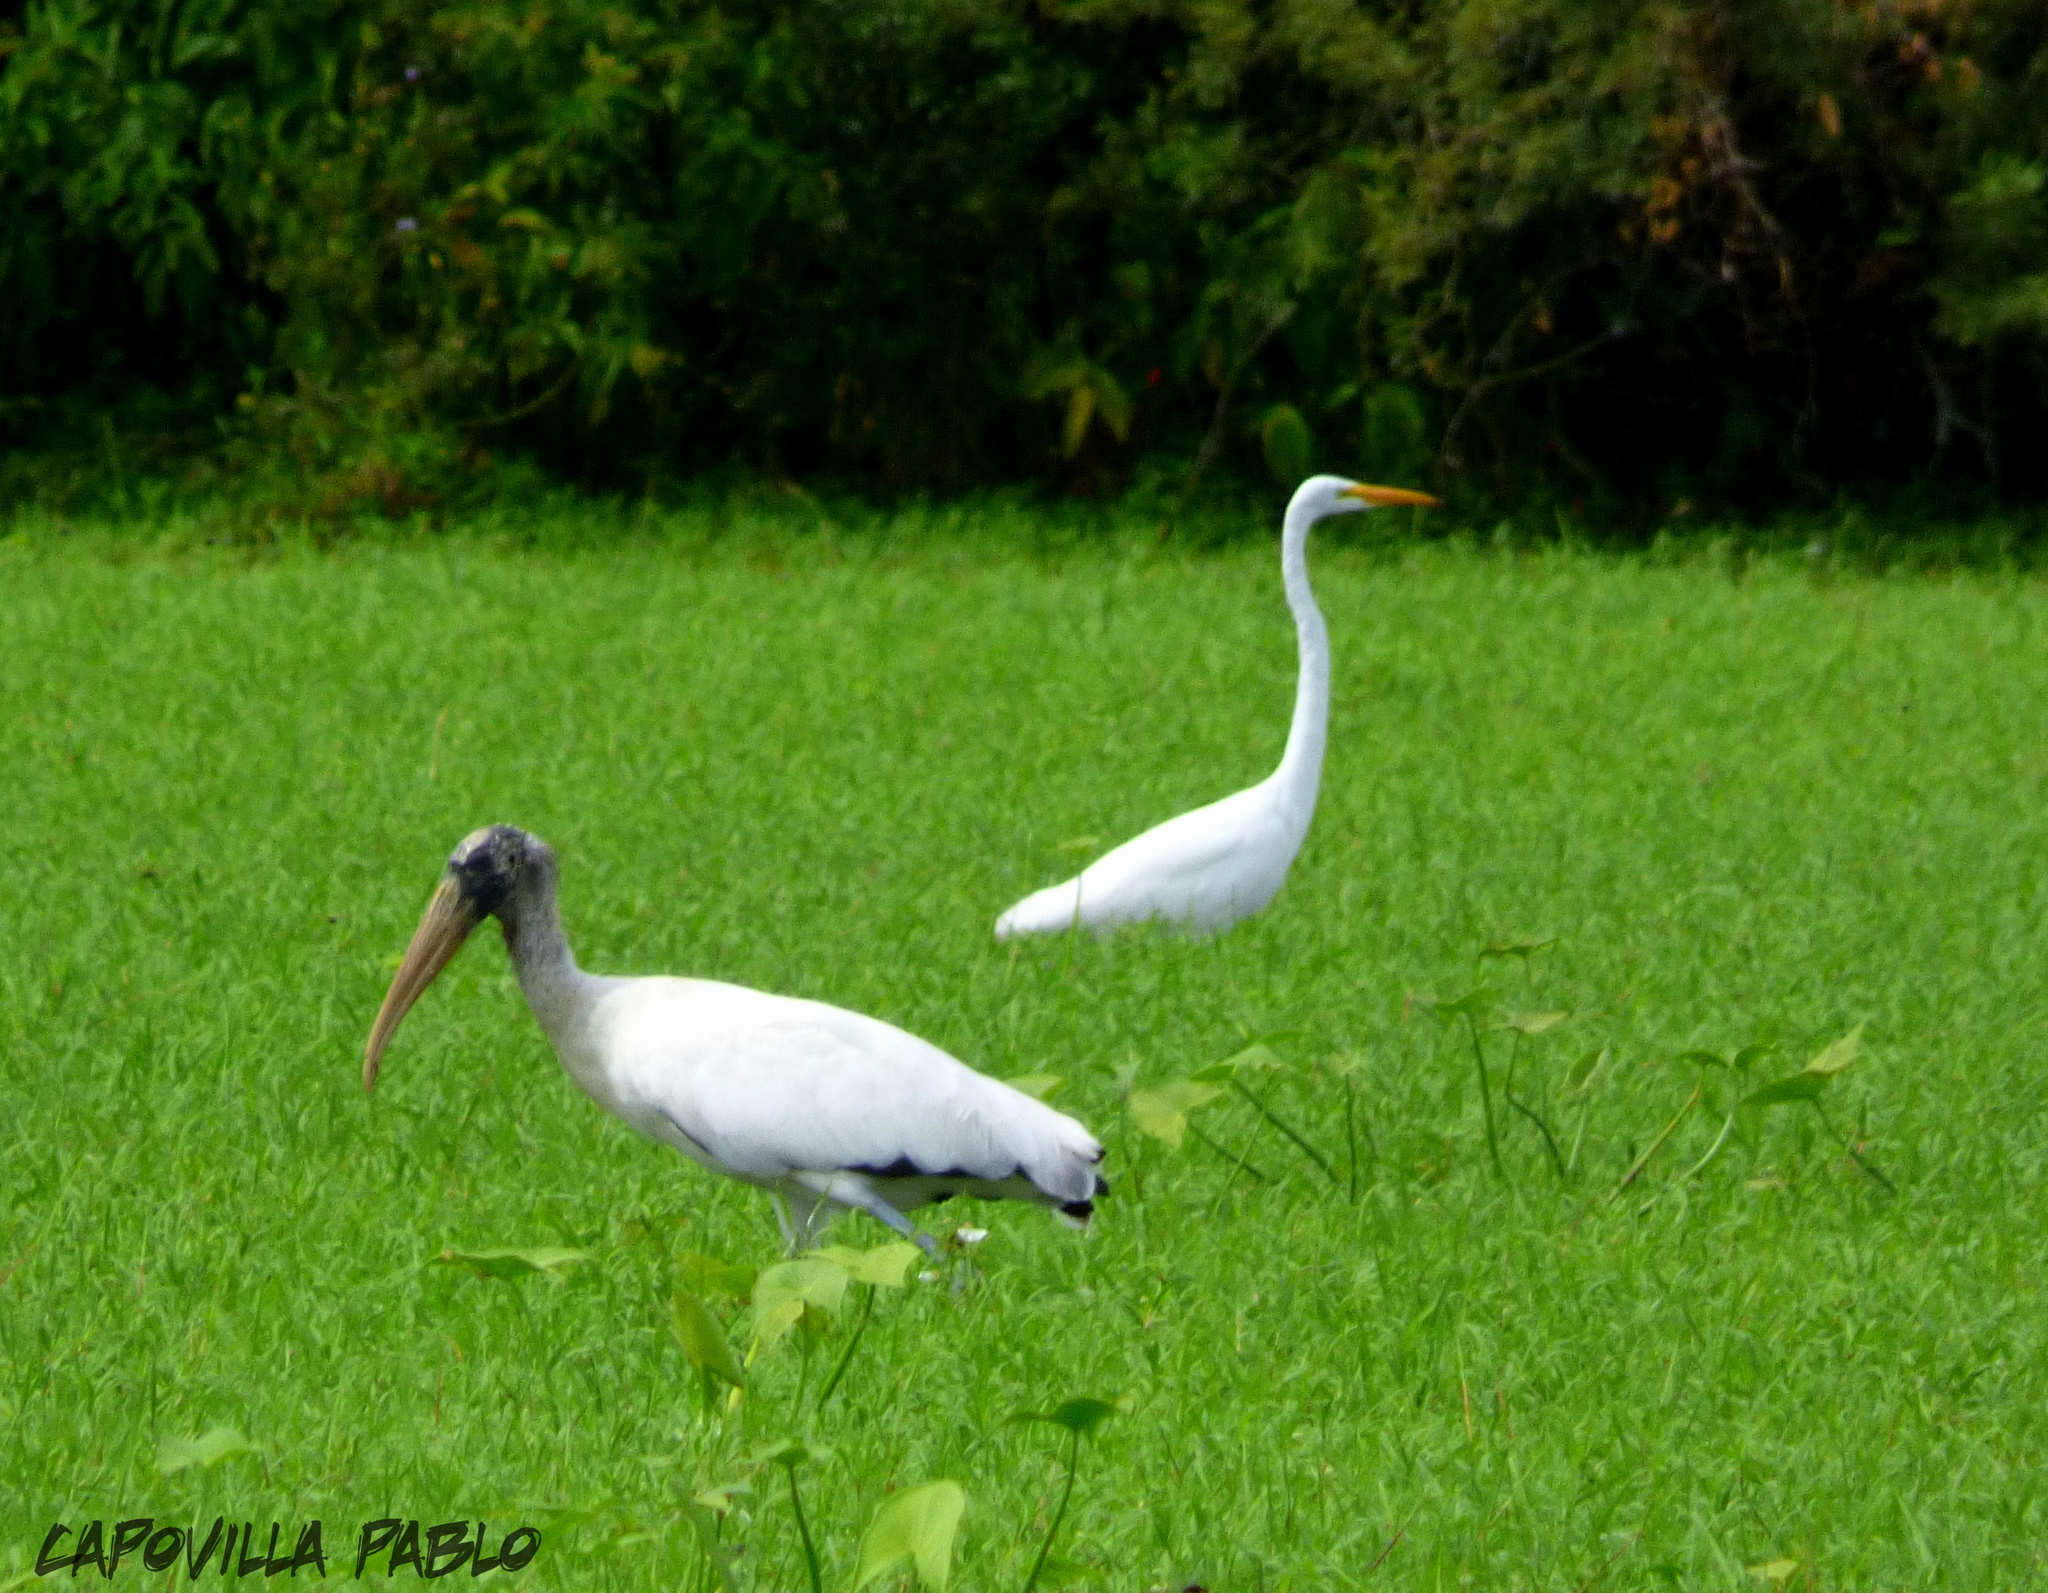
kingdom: Animalia
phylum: Chordata
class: Aves
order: Ciconiiformes
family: Ciconiidae
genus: Mycteria
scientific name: Mycteria americana
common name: Wood stork
